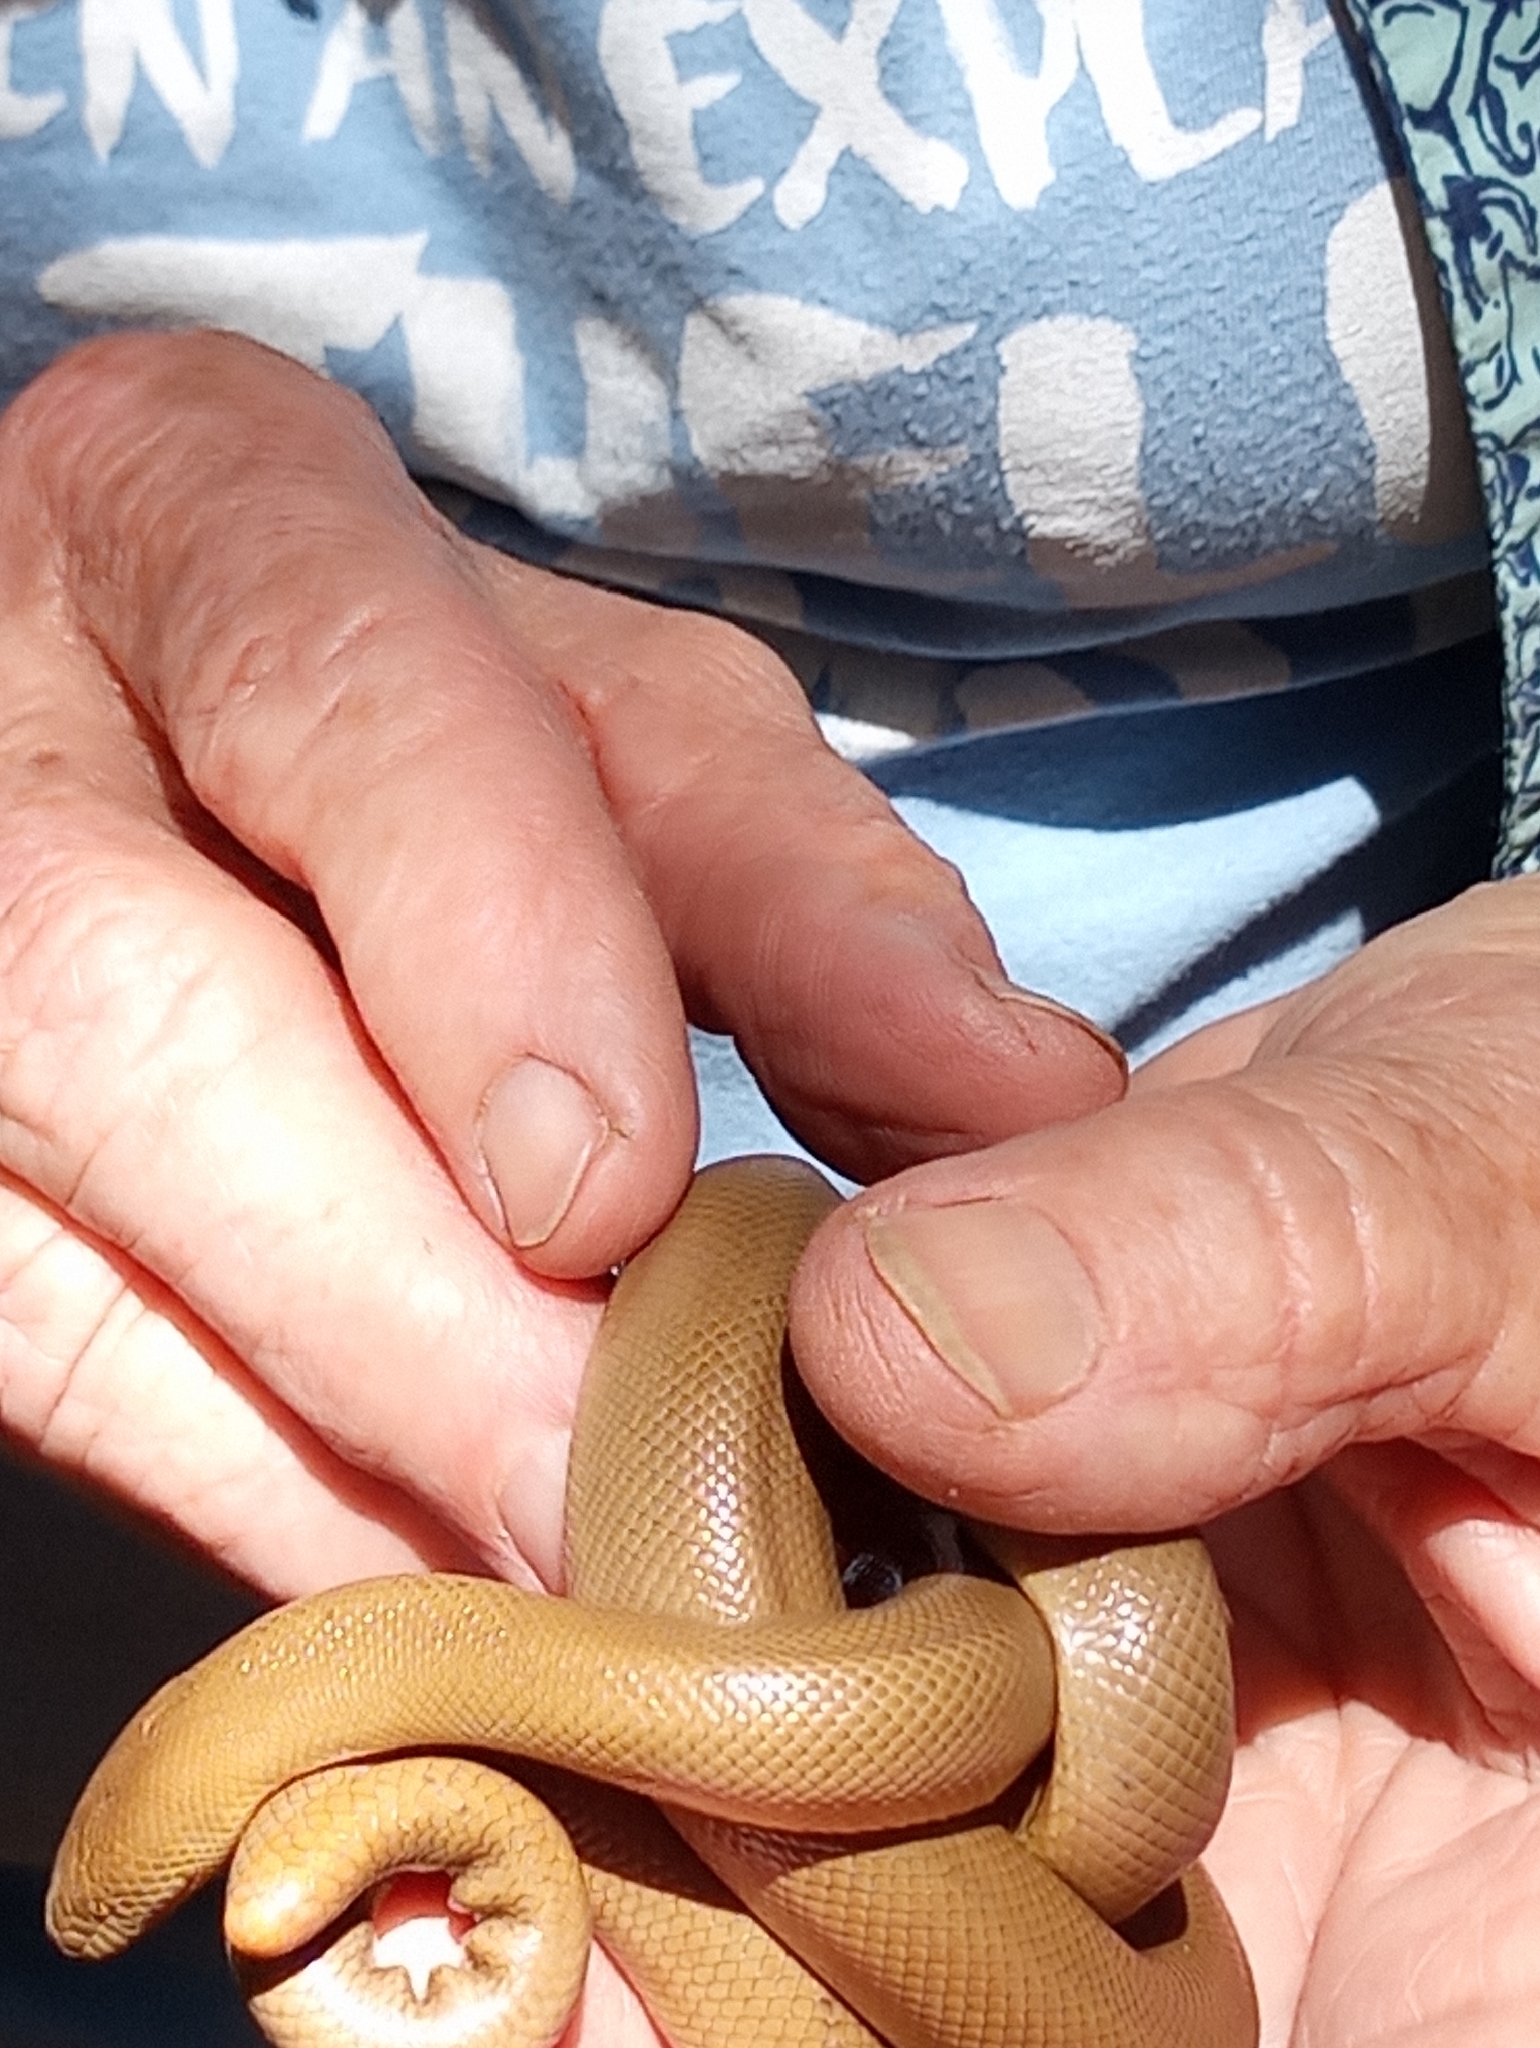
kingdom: Animalia
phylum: Chordata
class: Squamata
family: Boidae
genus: Charina
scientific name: Charina bottae
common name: Northern rubber boa
